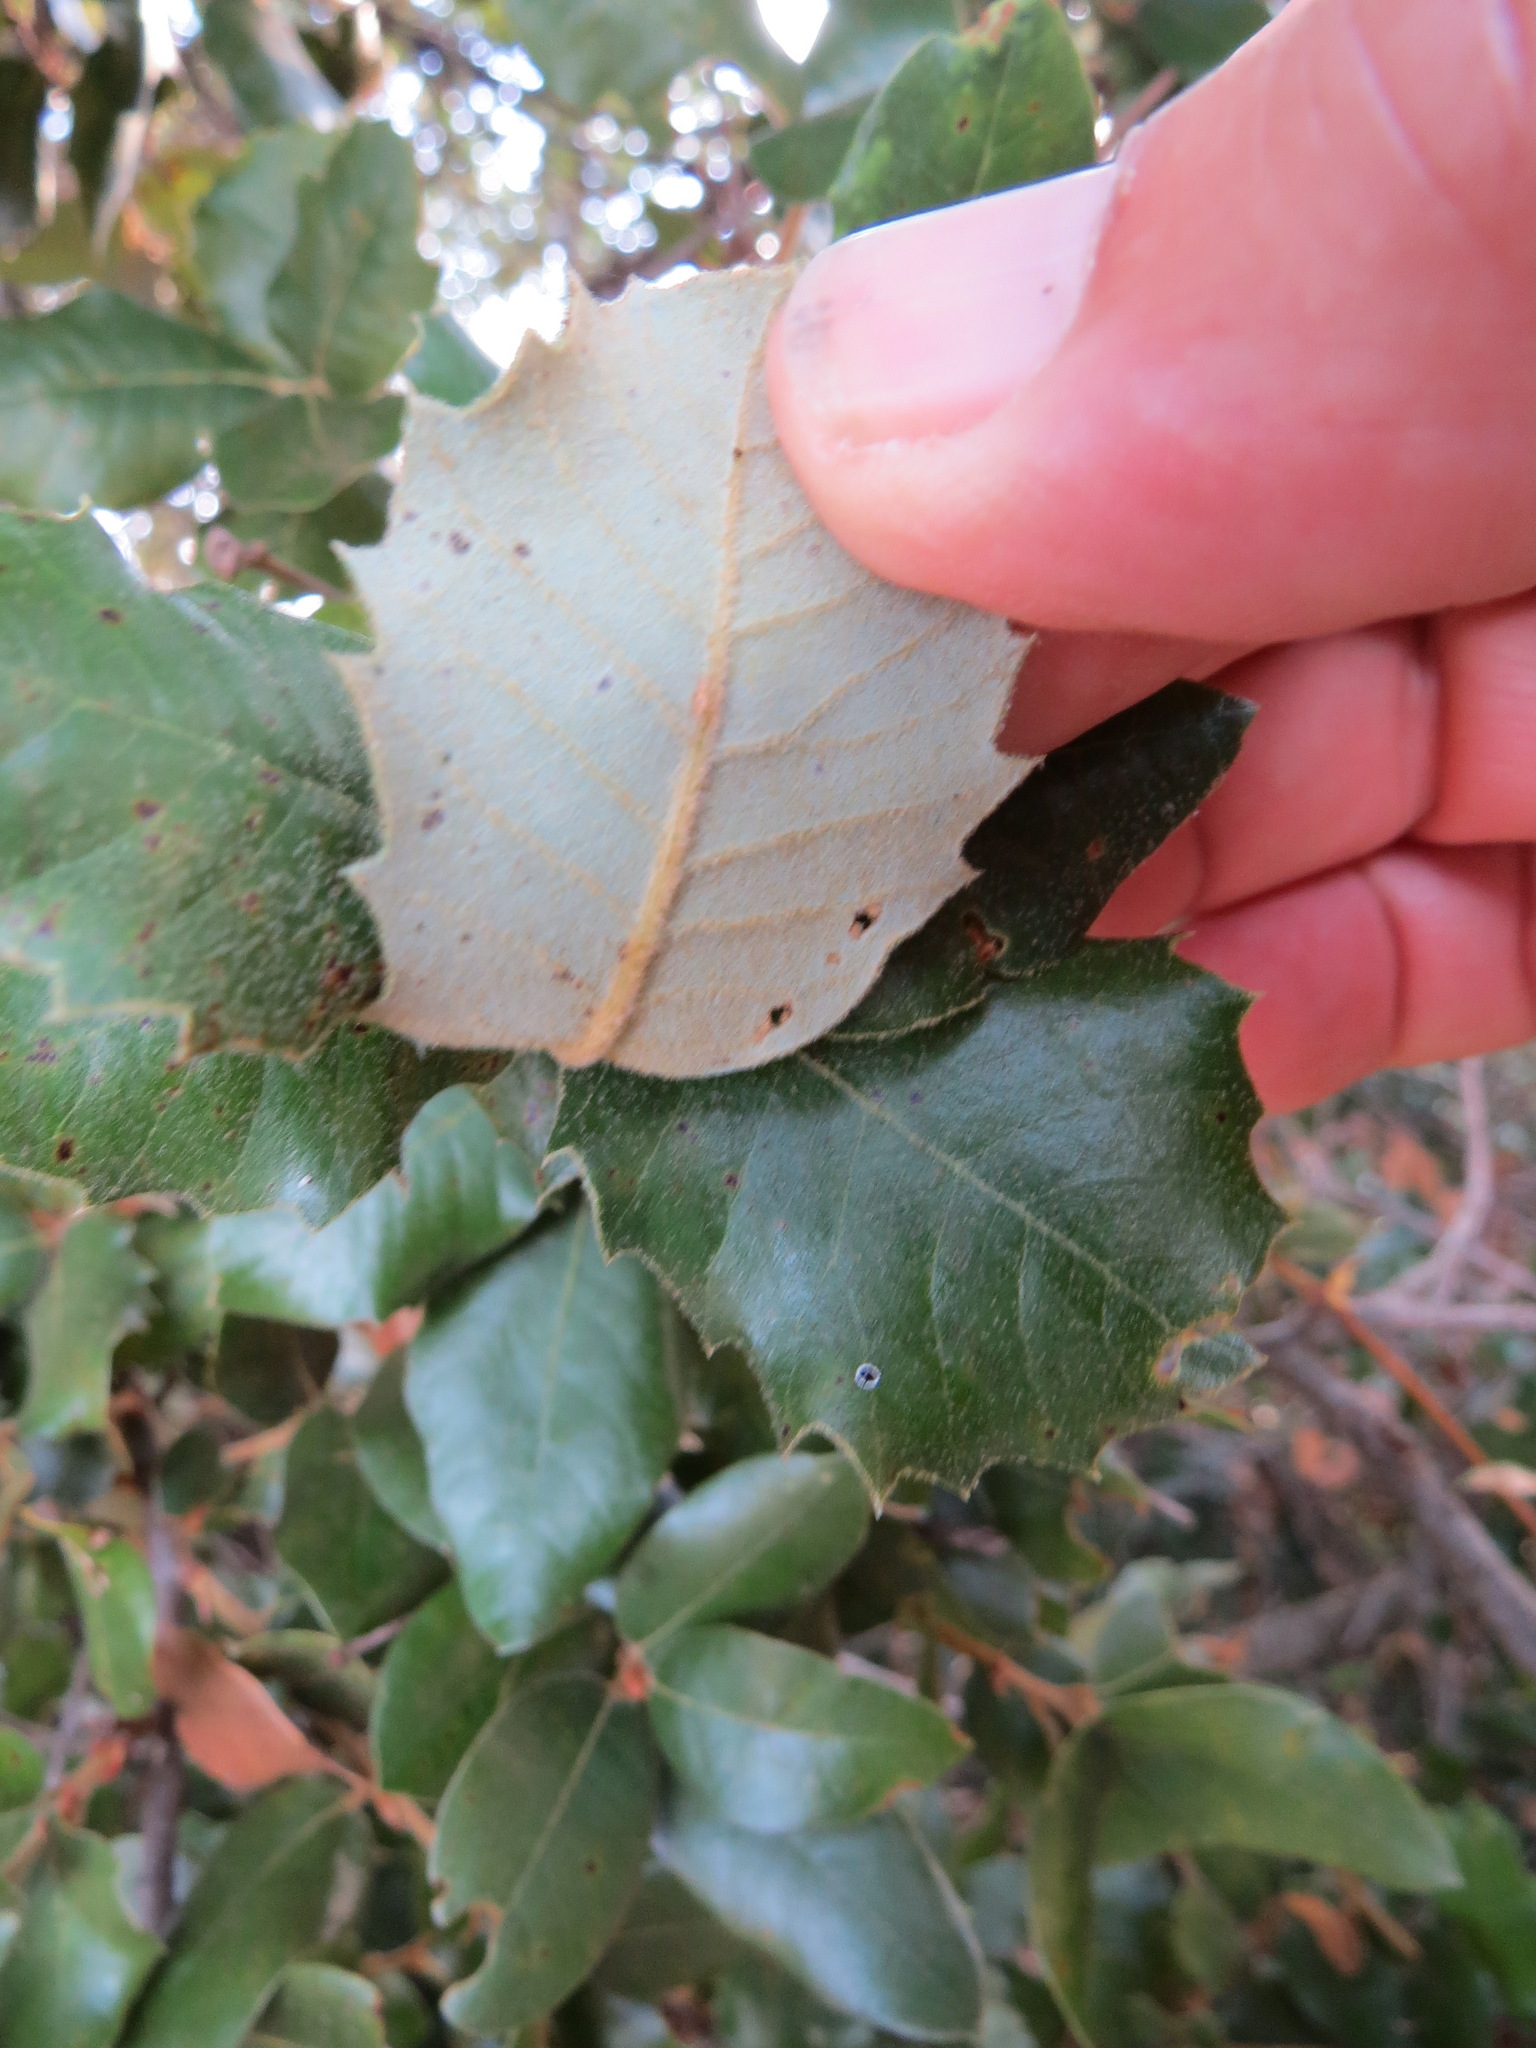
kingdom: Animalia
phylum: Arthropoda
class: Insecta
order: Hymenoptera
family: Cynipidae
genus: Disholandricus
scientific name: Disholandricus
